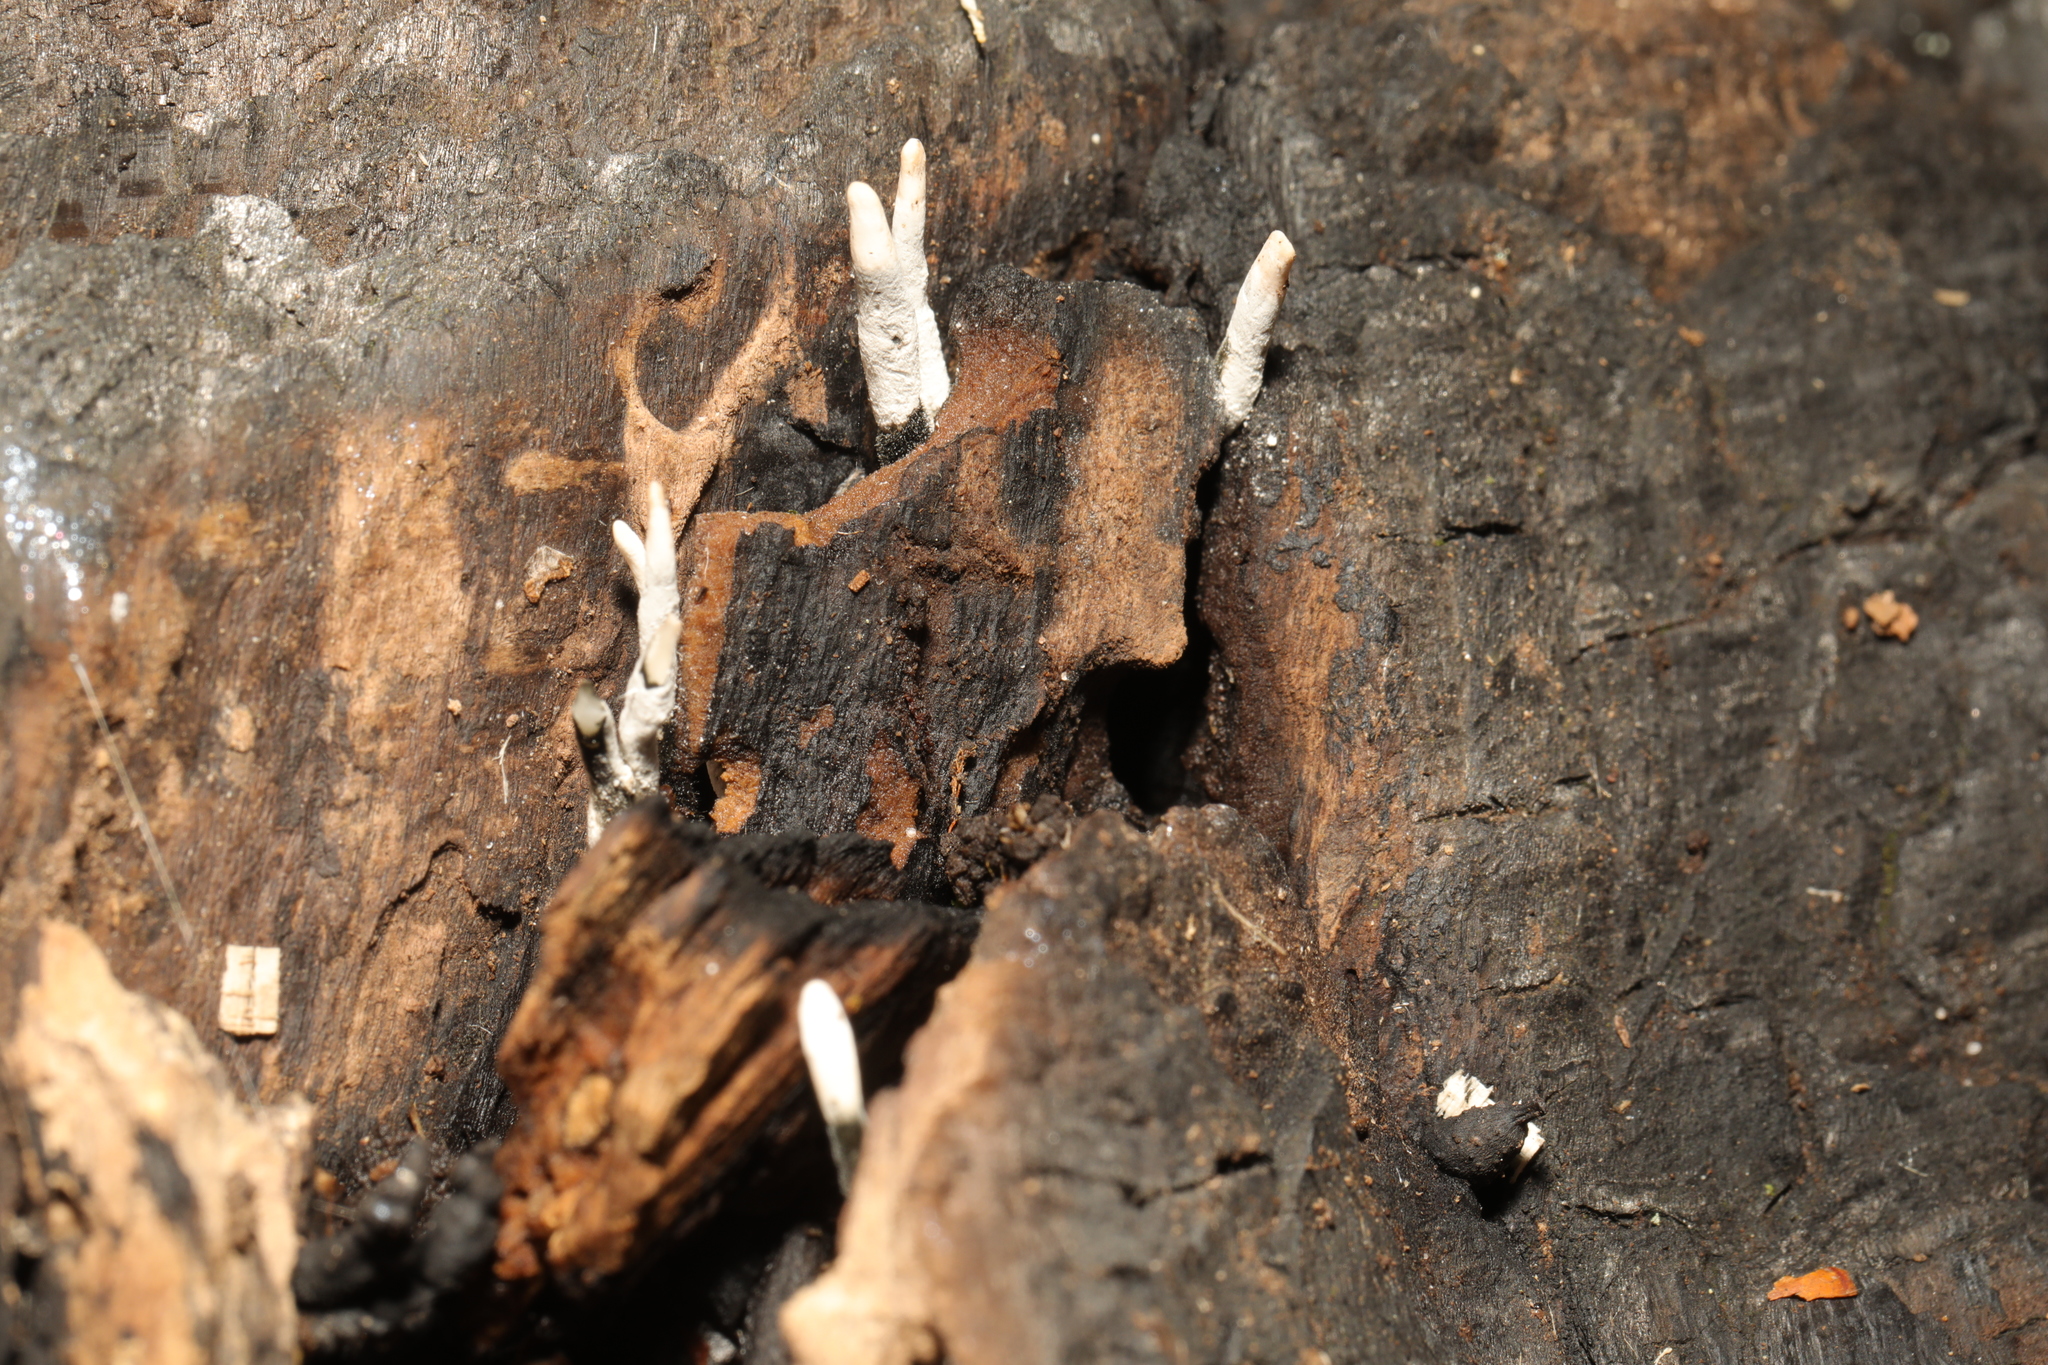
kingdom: Fungi
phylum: Ascomycota
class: Sordariomycetes
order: Xylariales
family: Xylariaceae
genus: Xylaria
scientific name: Xylaria hypoxylon
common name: Candle-snuff fungus
